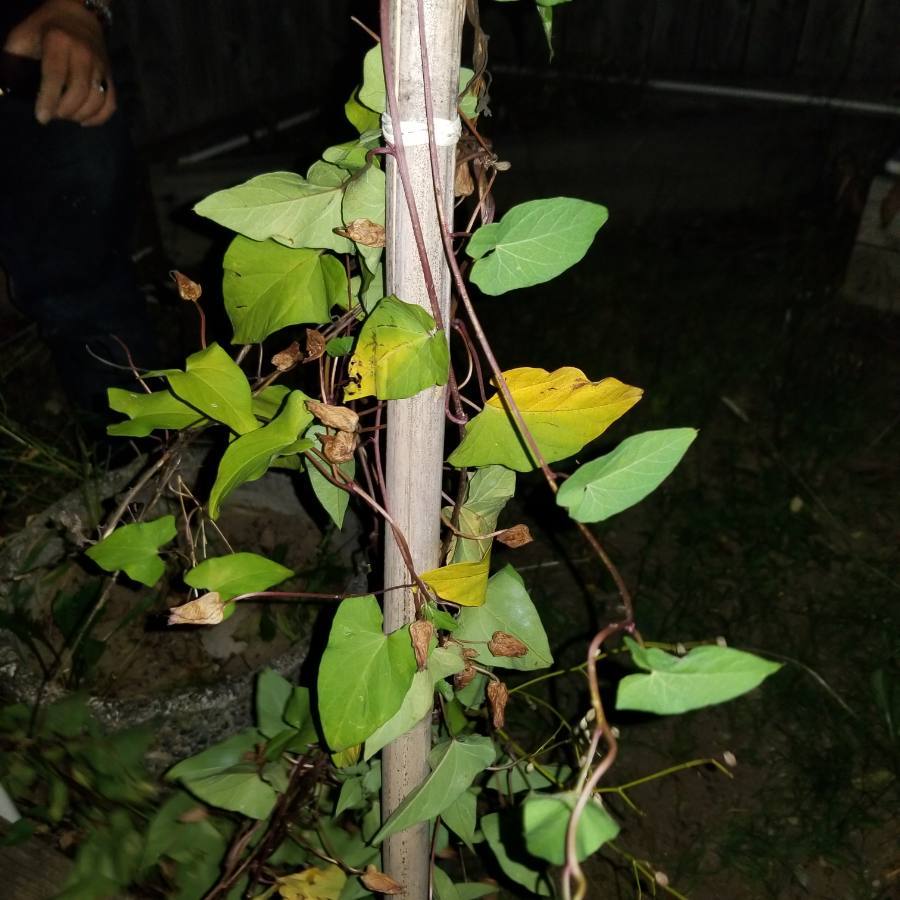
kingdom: Plantae
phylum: Tracheophyta
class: Magnoliopsida
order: Solanales
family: Convolvulaceae
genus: Calystegia
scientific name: Calystegia sepium
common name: Hedge bindweed
